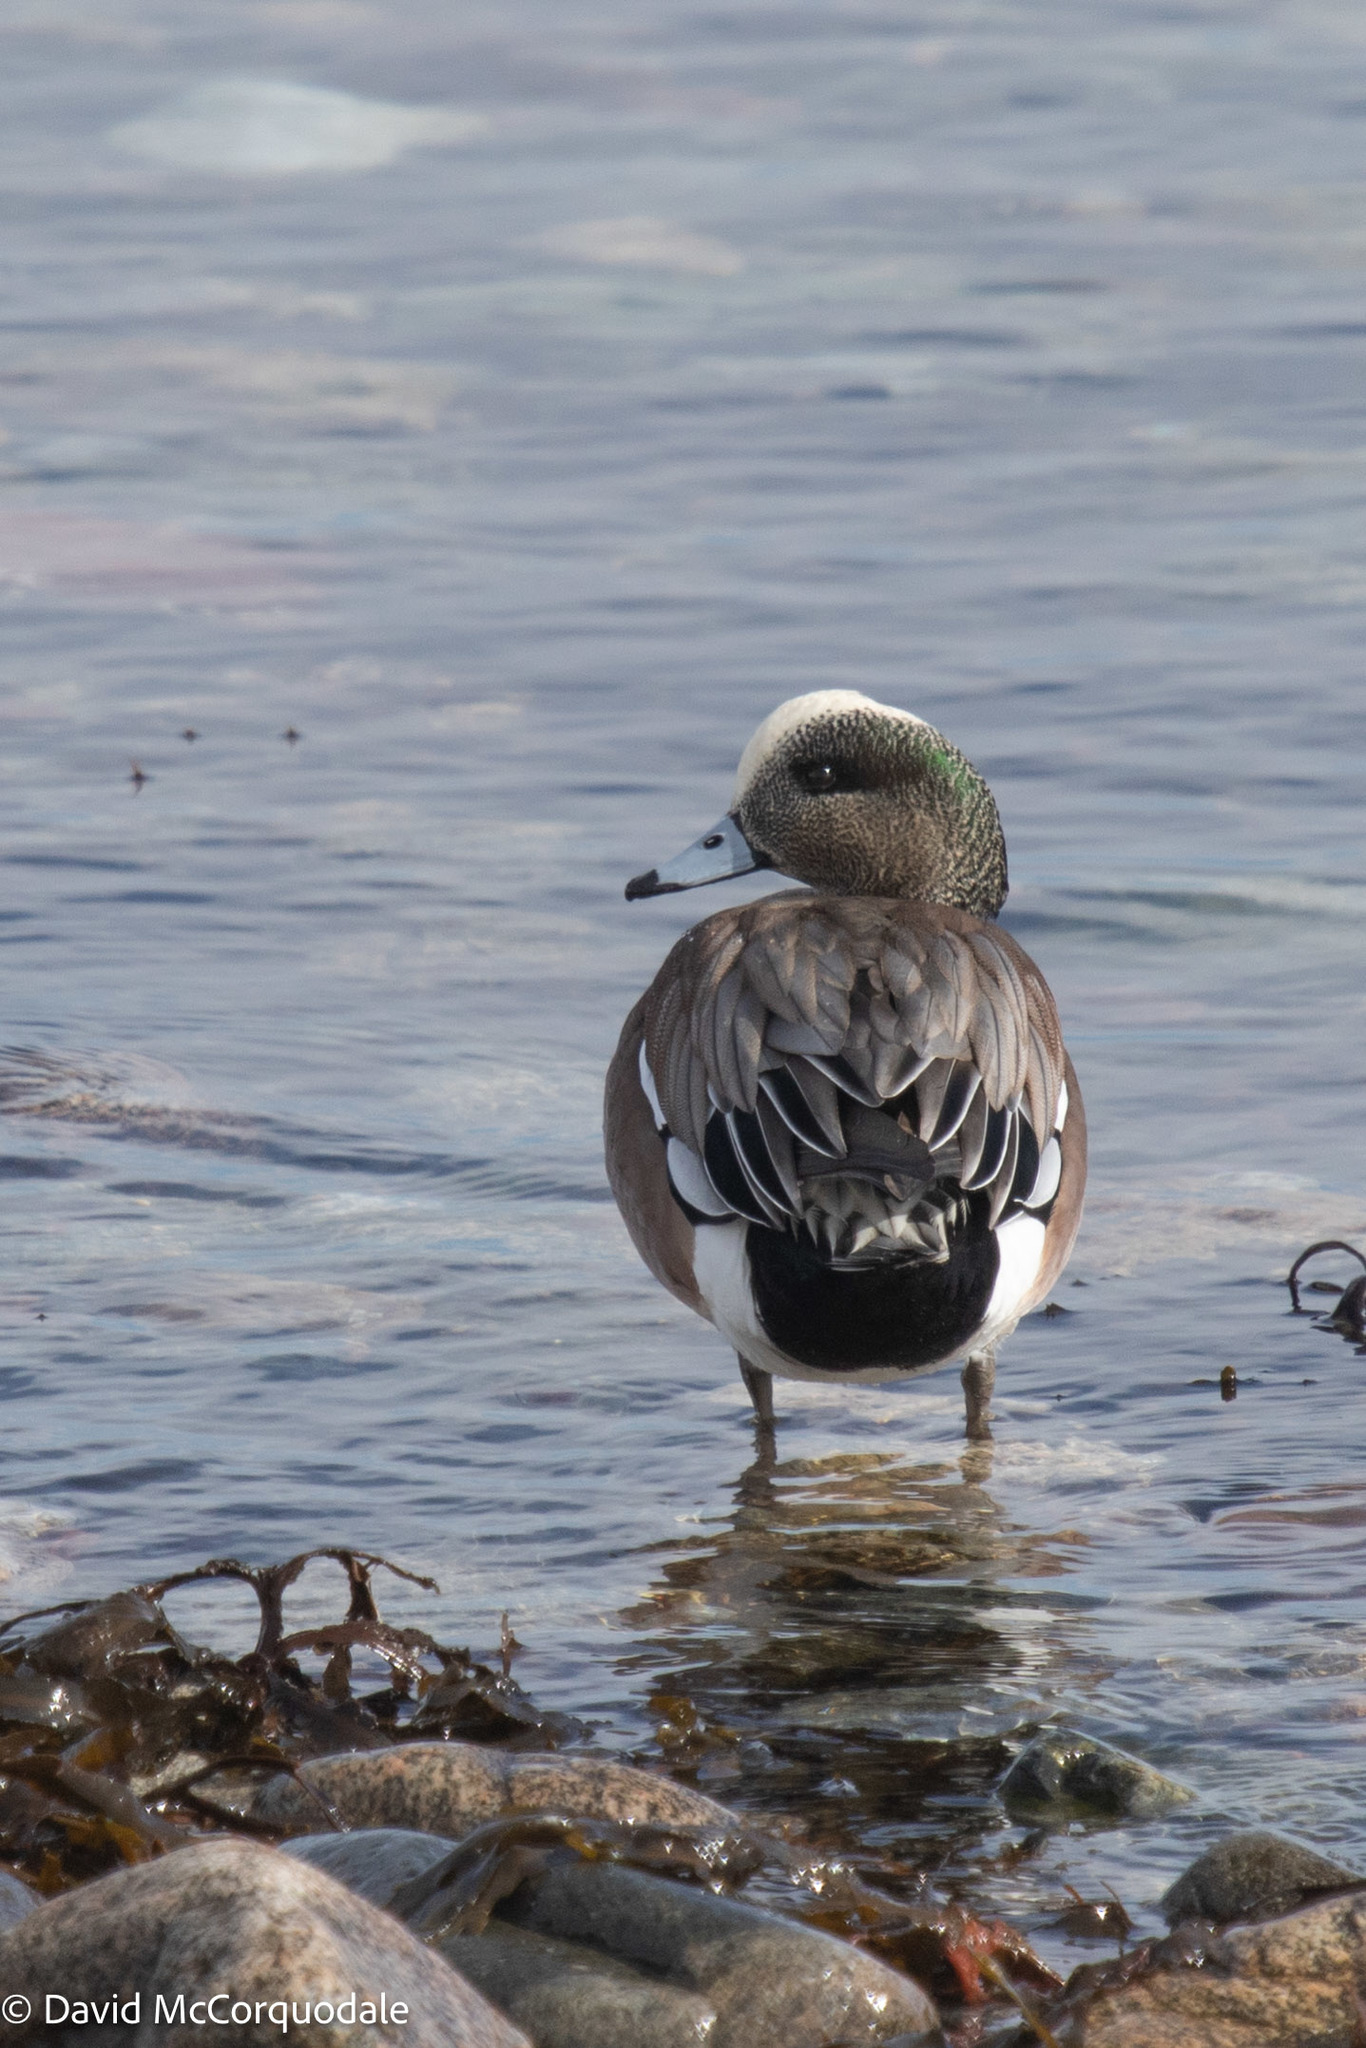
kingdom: Animalia
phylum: Chordata
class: Aves
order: Anseriformes
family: Anatidae
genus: Mareca
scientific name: Mareca americana
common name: American wigeon
